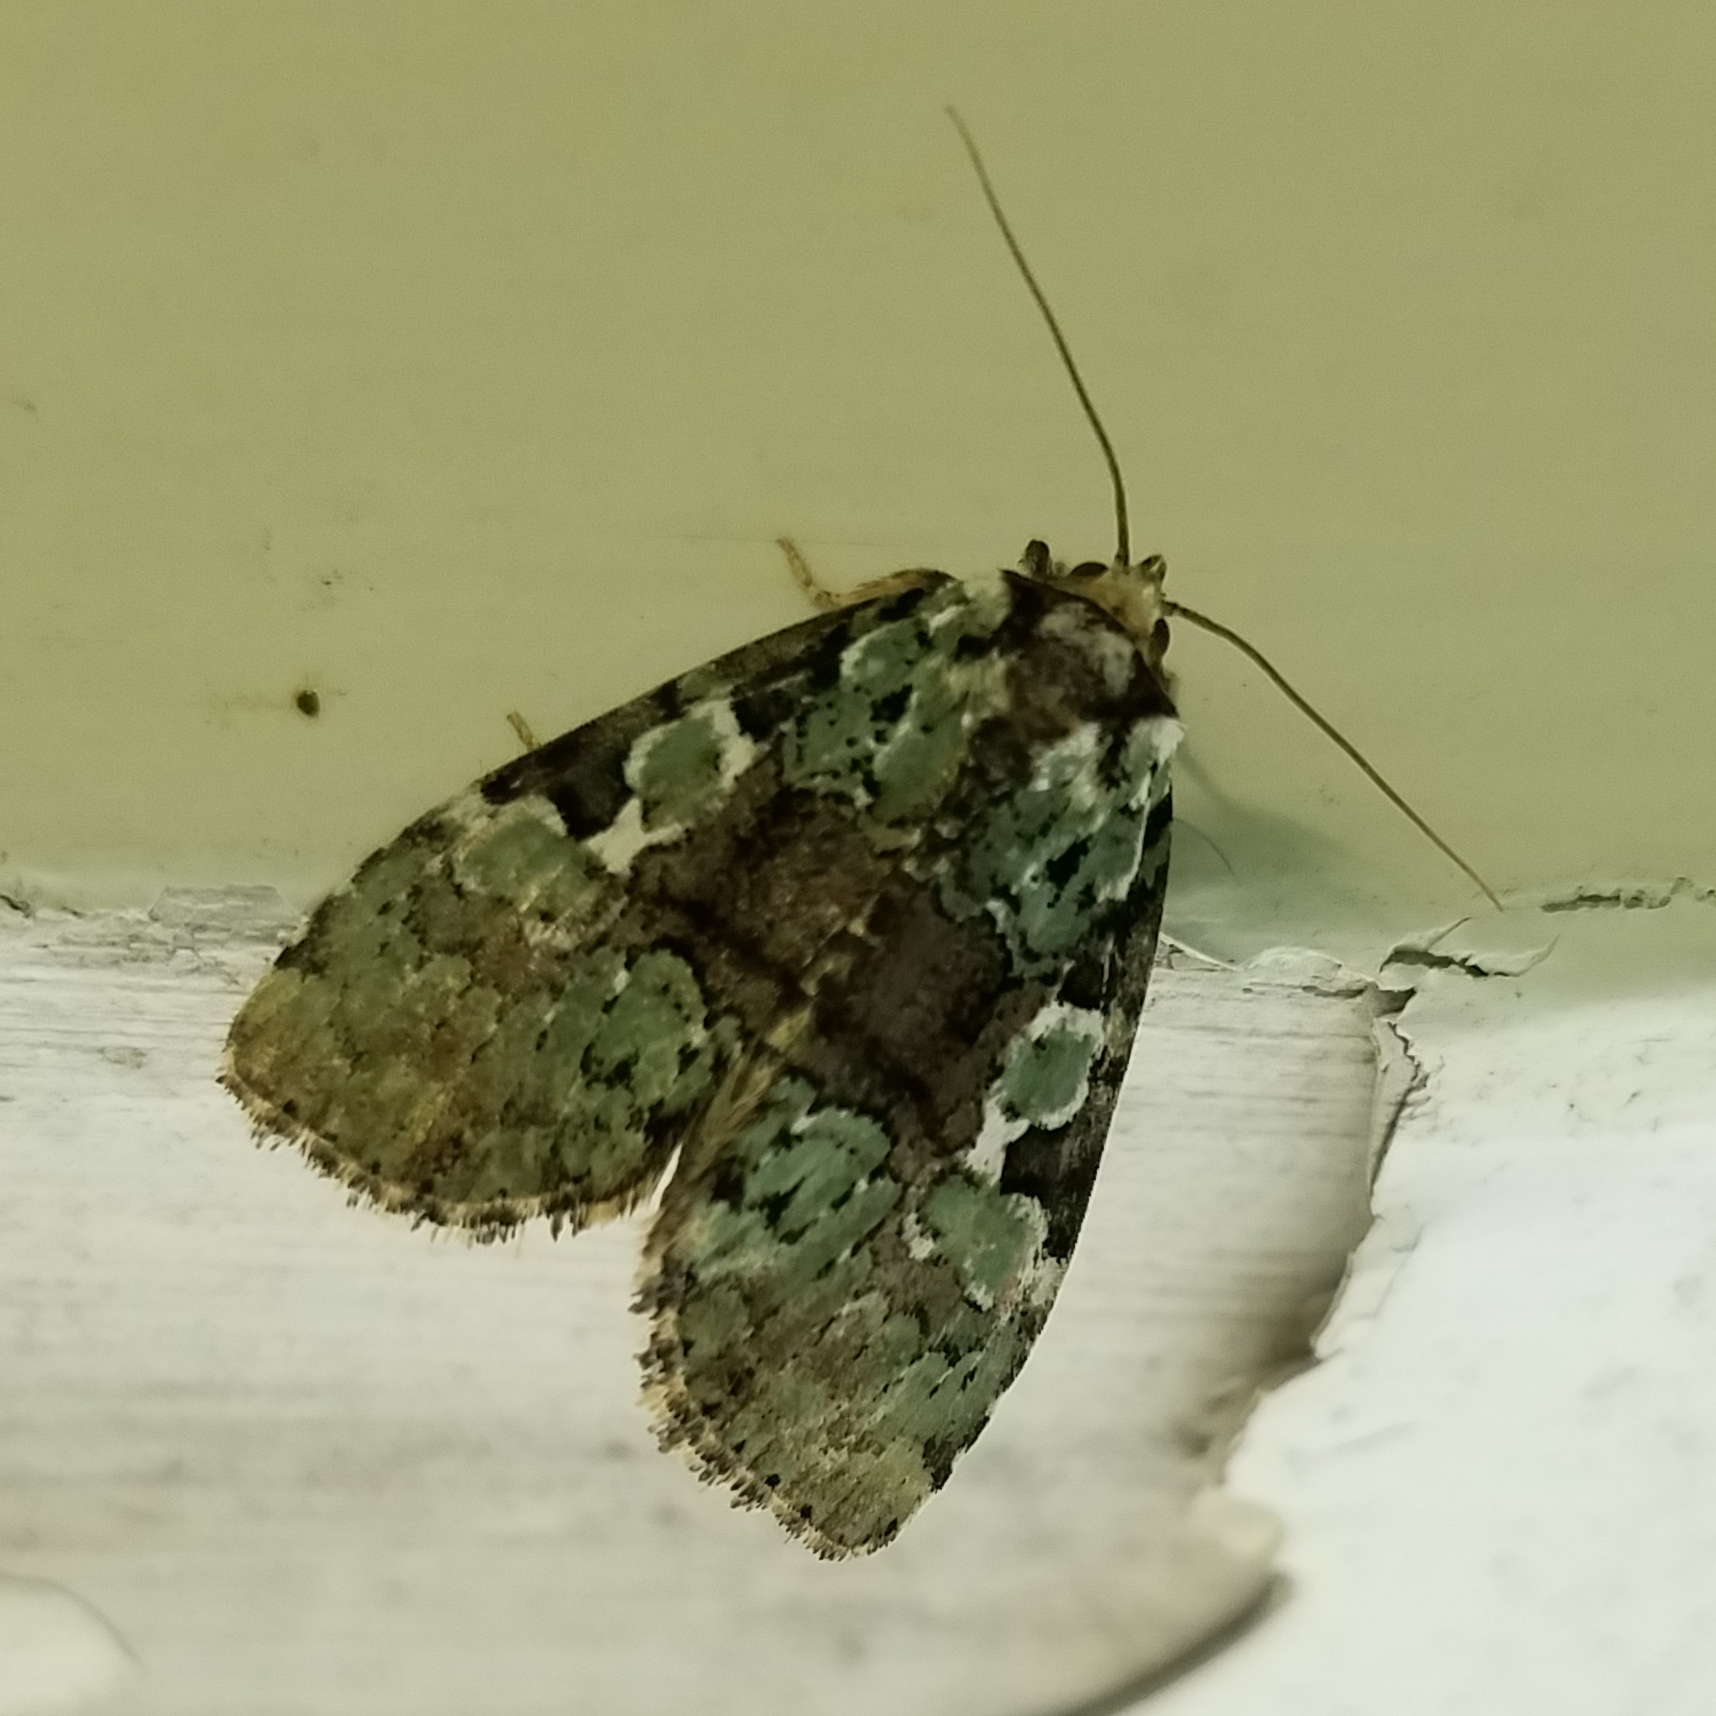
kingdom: Animalia
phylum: Arthropoda
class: Insecta
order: Lepidoptera
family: Noctuidae
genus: Leuconycta
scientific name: Leuconycta lepidula
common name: Marbled-green leuconycta moth
